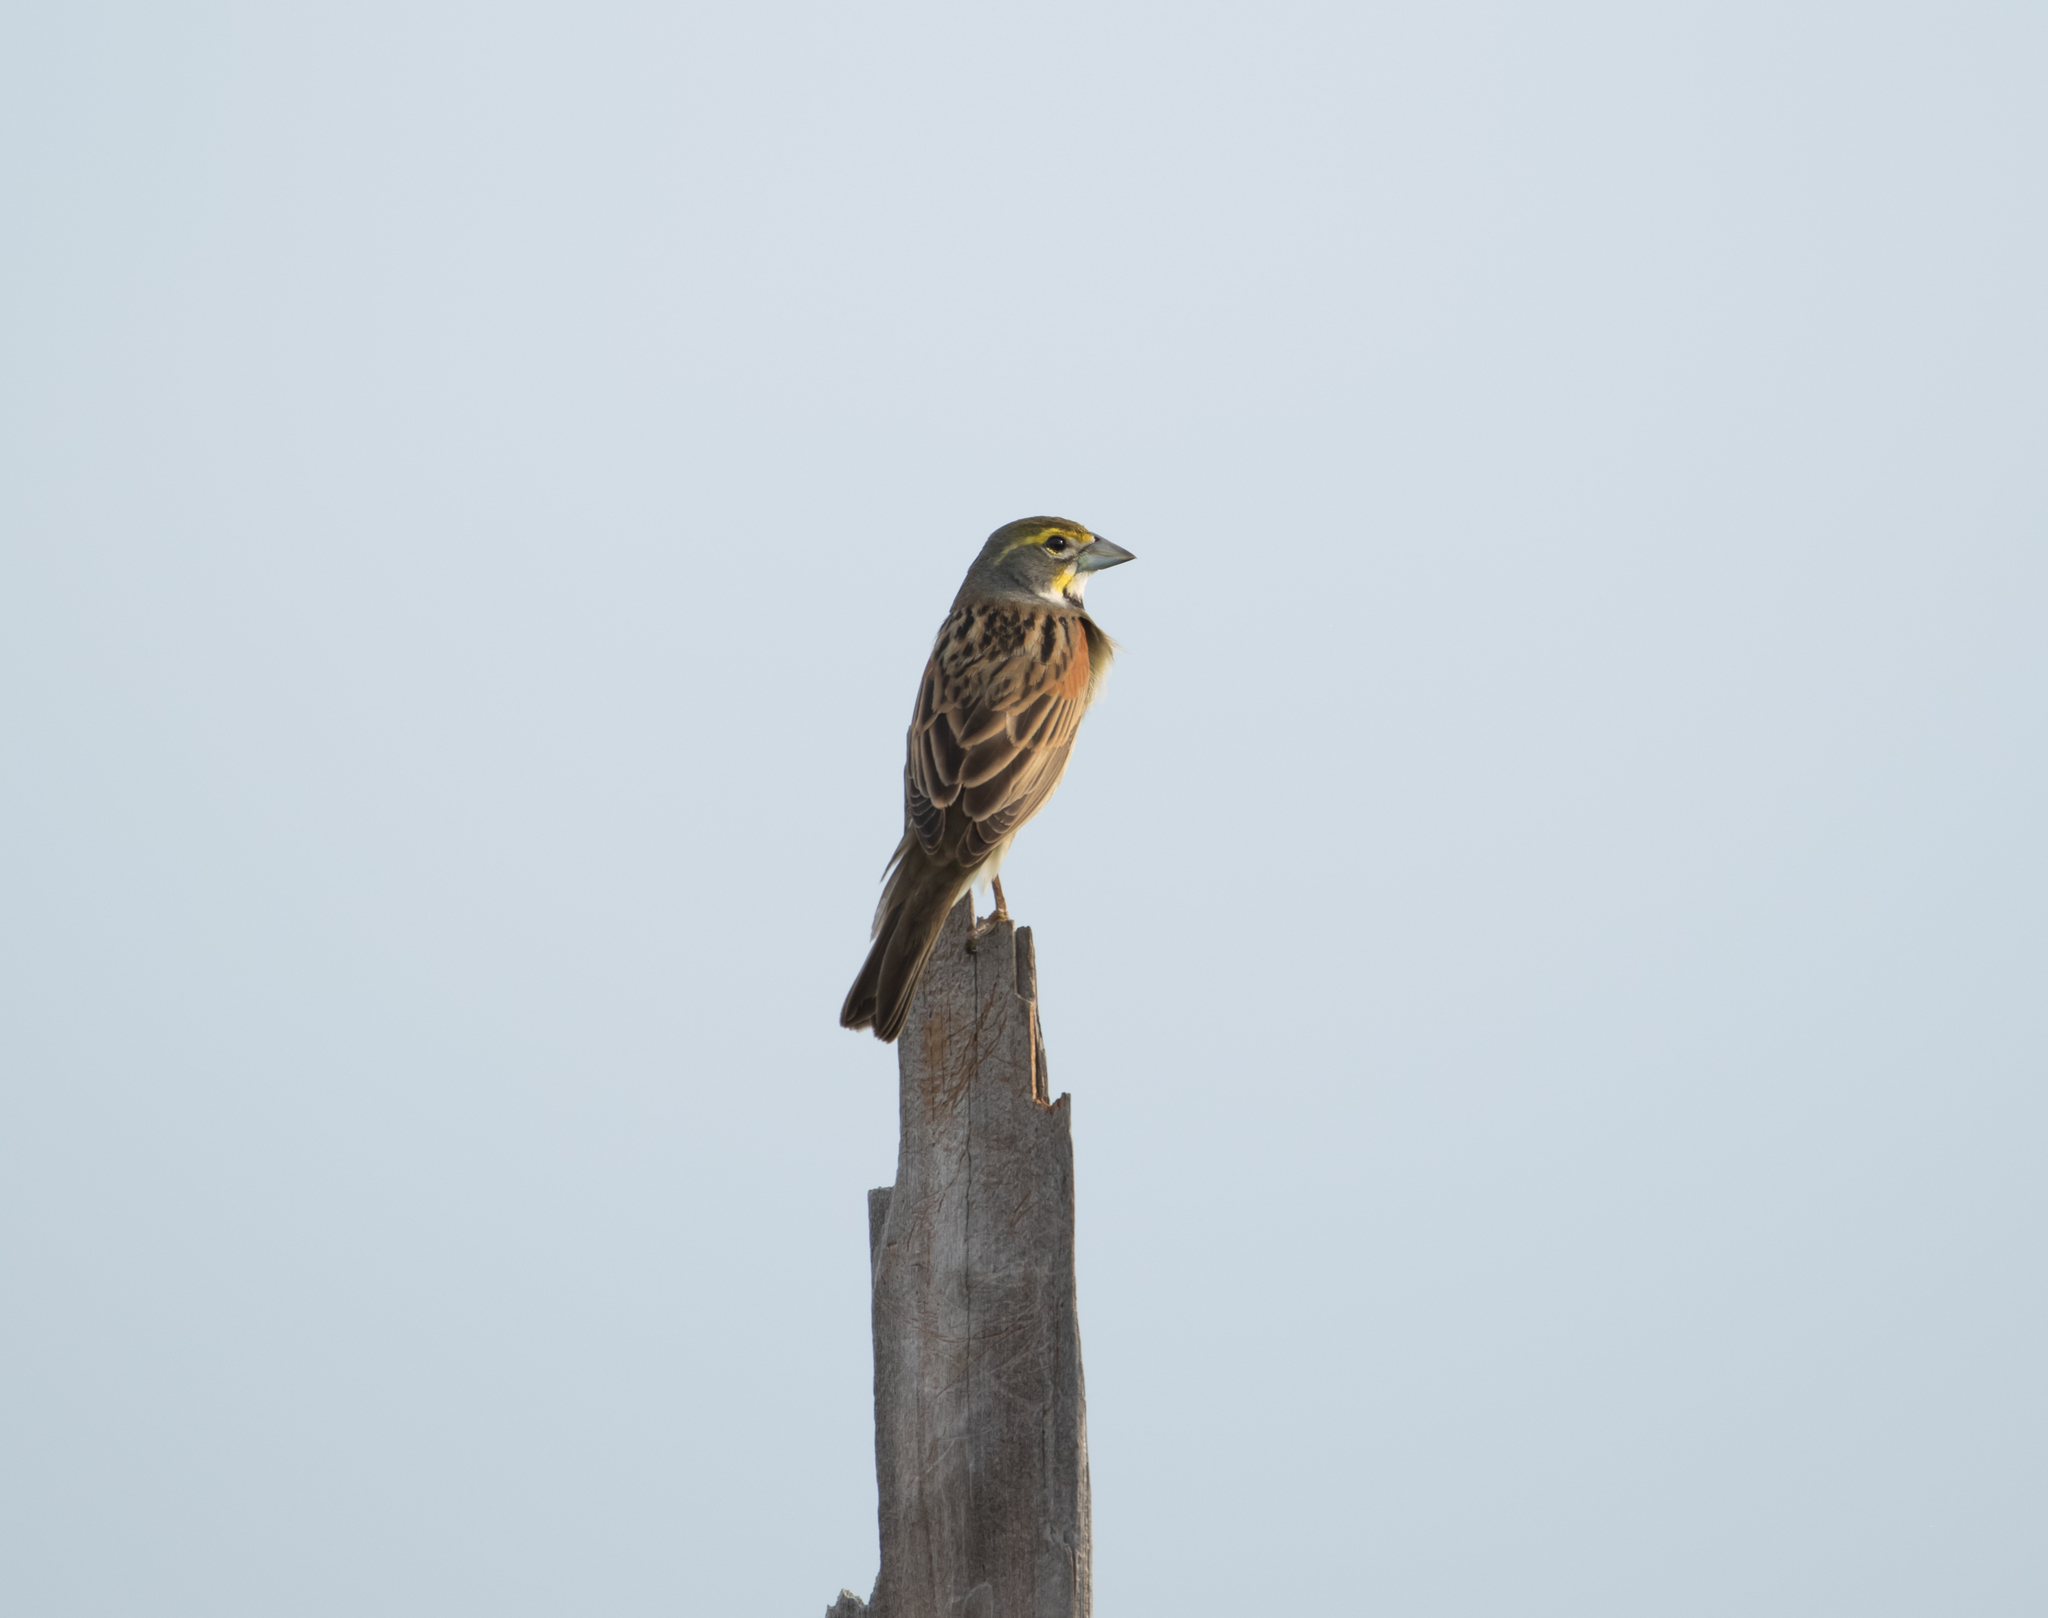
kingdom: Animalia
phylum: Chordata
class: Aves
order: Passeriformes
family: Cardinalidae
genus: Spiza
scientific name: Spiza americana
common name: Dickcissel
